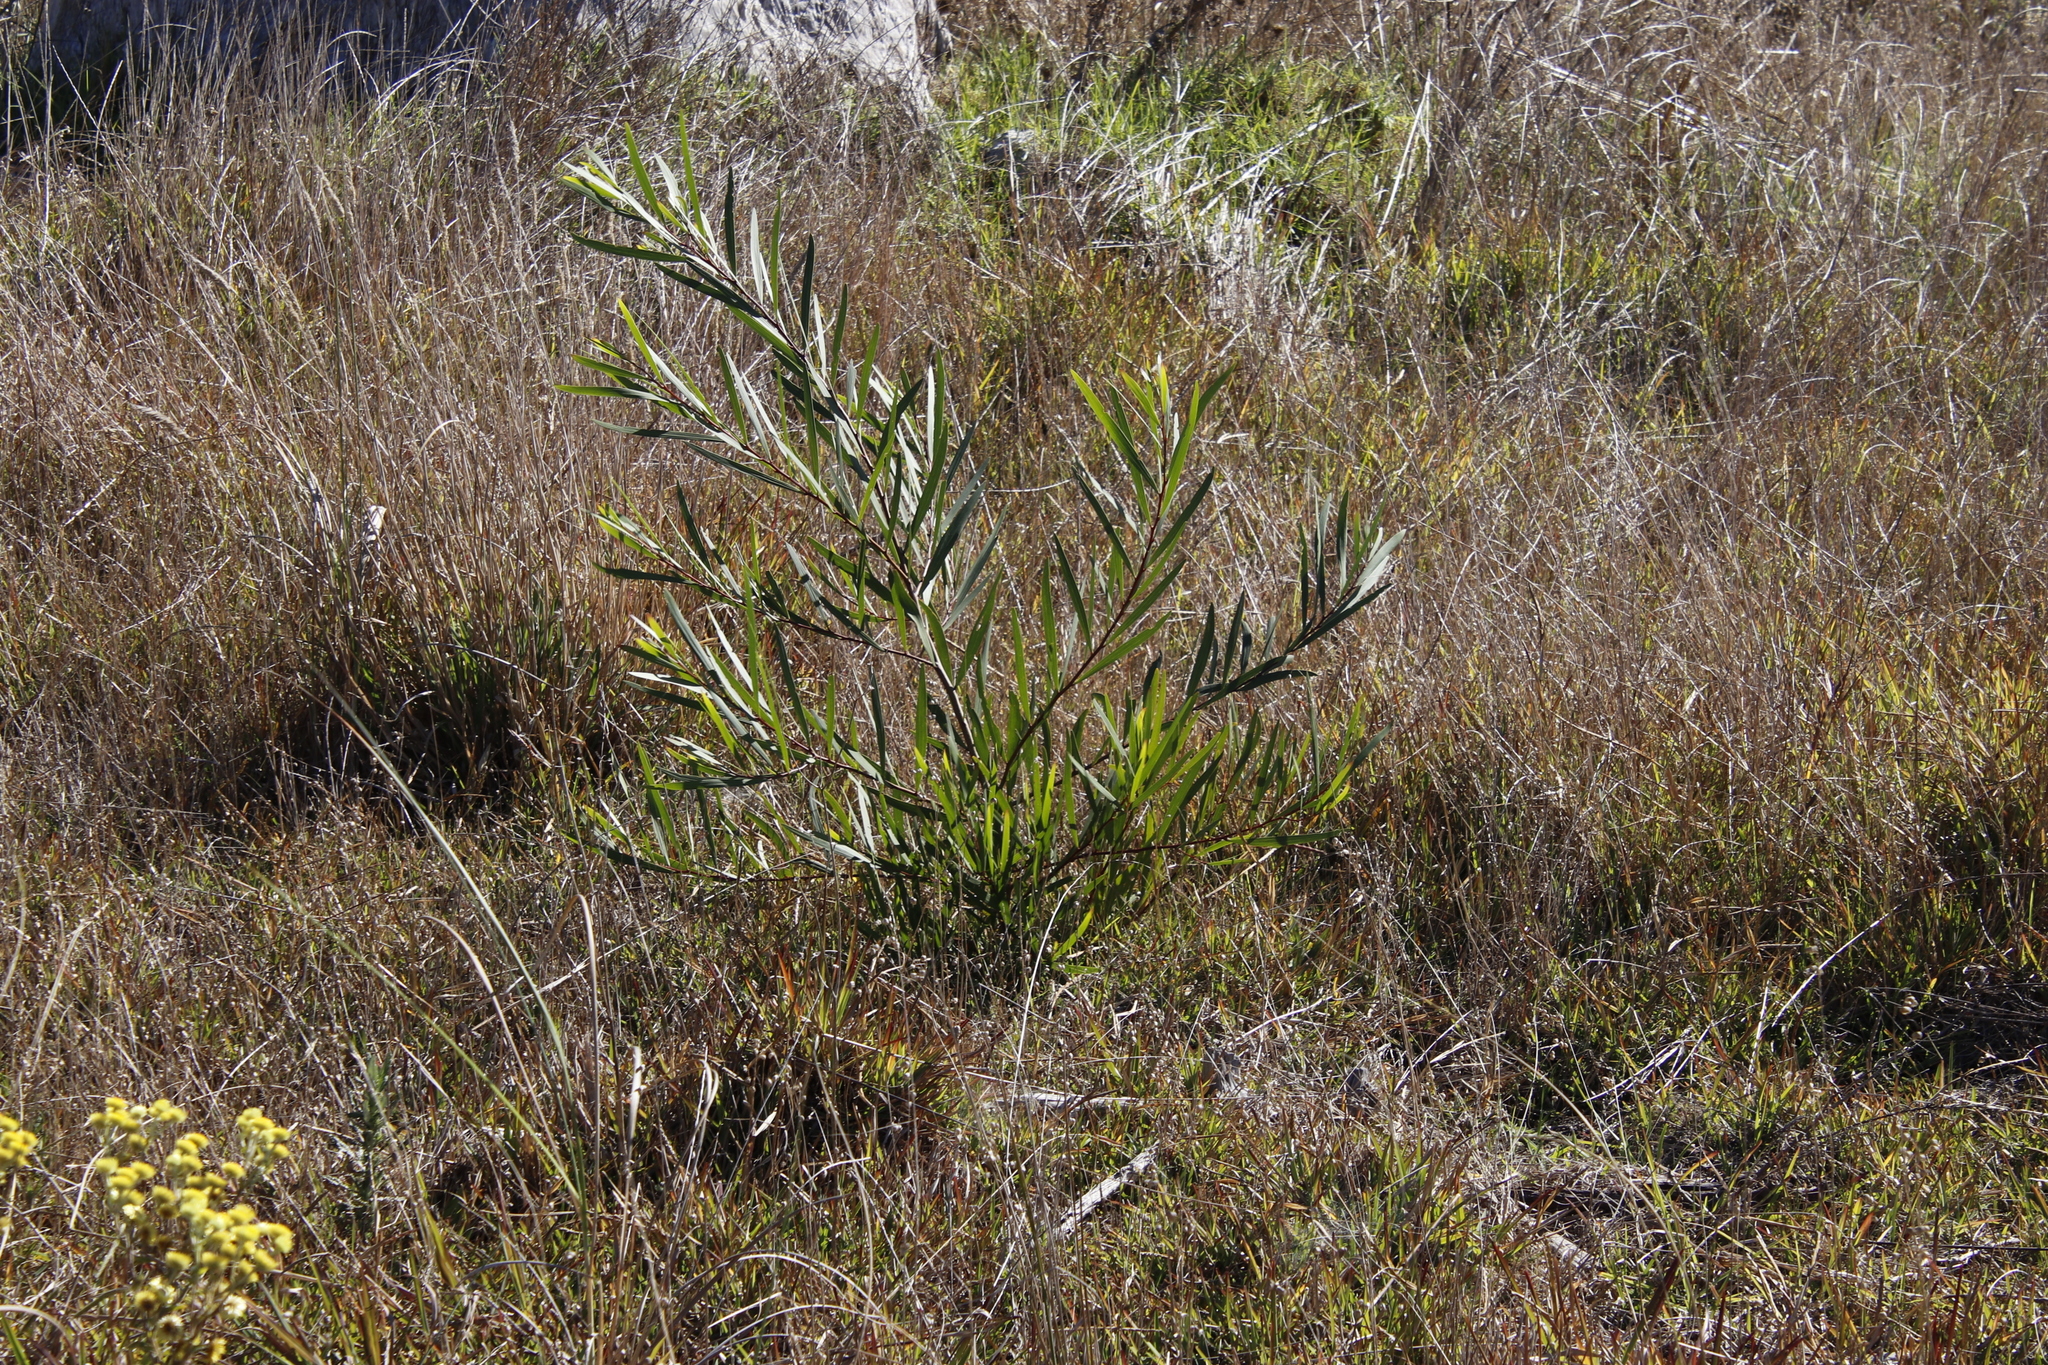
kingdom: Plantae
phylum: Tracheophyta
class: Magnoliopsida
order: Fabales
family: Fabaceae
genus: Acacia
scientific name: Acacia longifolia
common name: Sydney golden wattle
